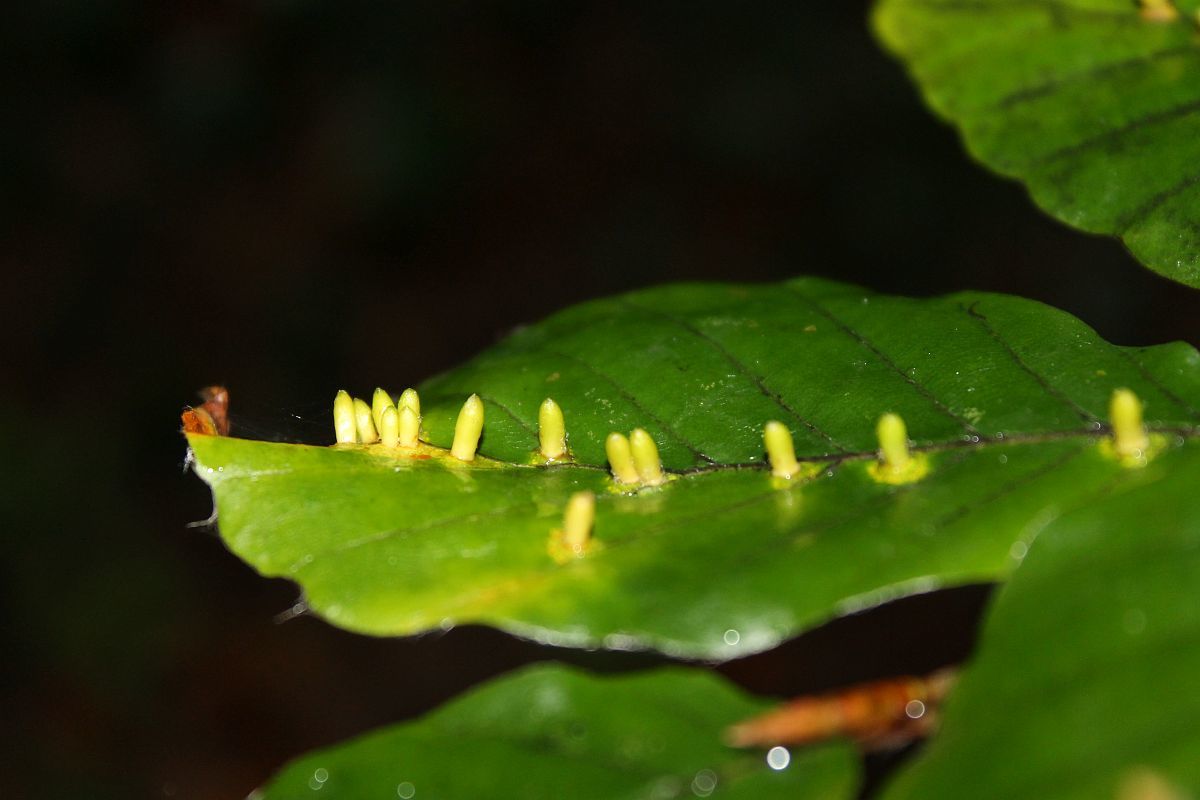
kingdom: Animalia
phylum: Arthropoda
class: Insecta
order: Diptera
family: Cecidomyiidae
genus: Hartigiola
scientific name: Hartigiola annulipes
